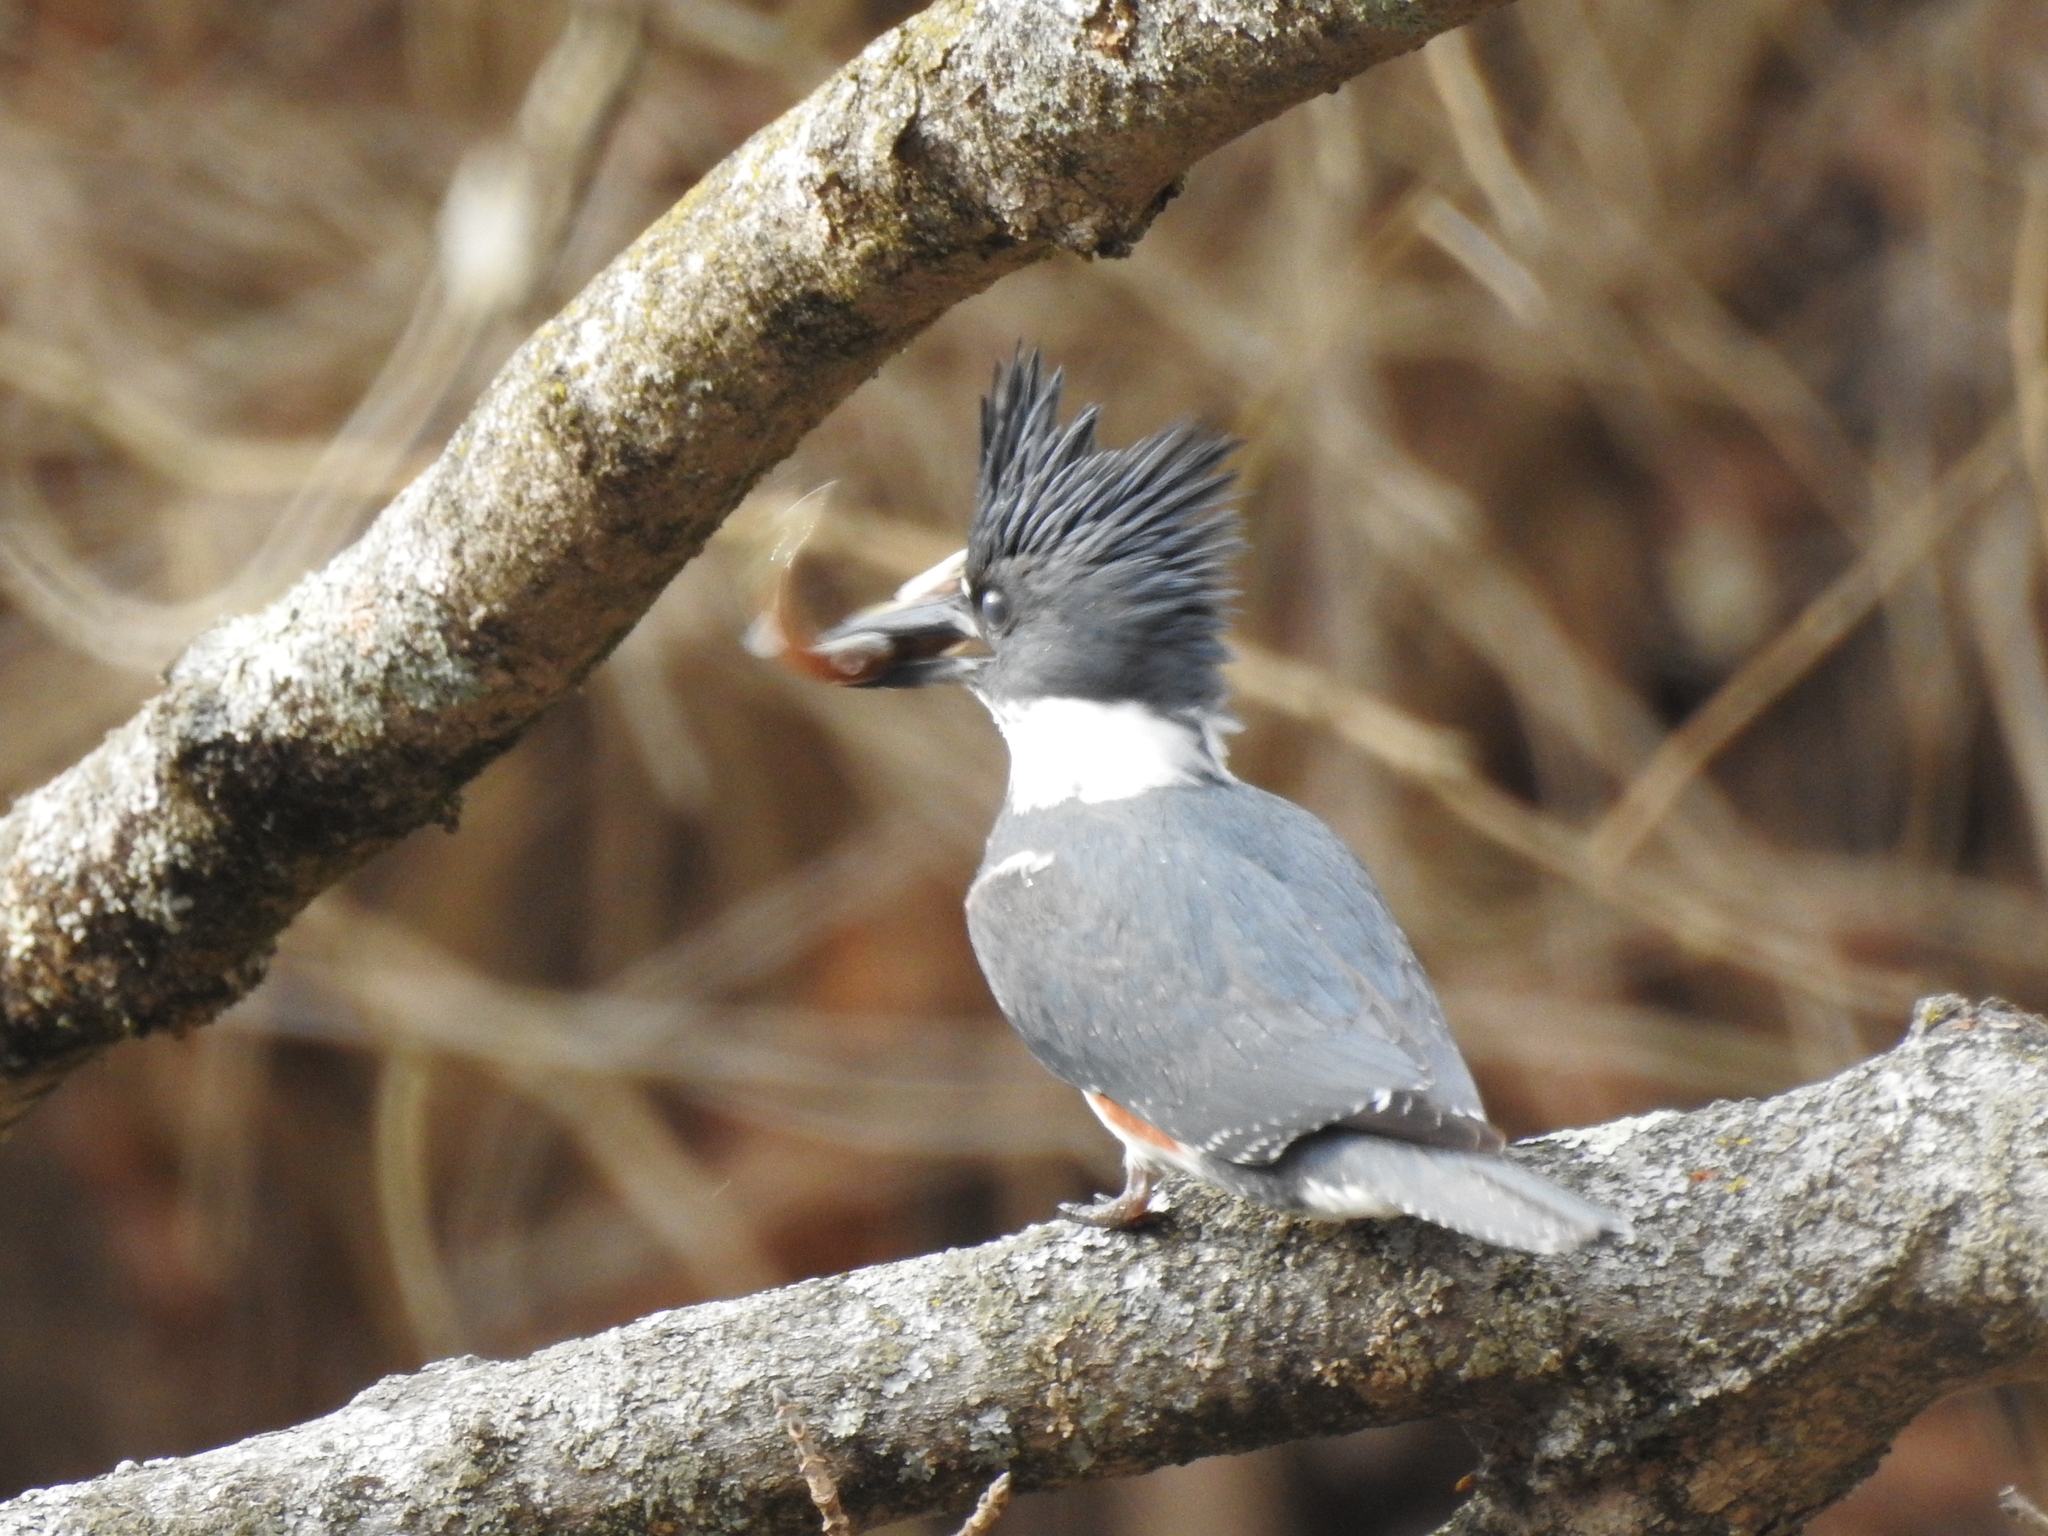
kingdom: Animalia
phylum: Chordata
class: Aves
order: Coraciiformes
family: Alcedinidae
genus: Megaceryle
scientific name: Megaceryle alcyon
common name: Belted kingfisher
